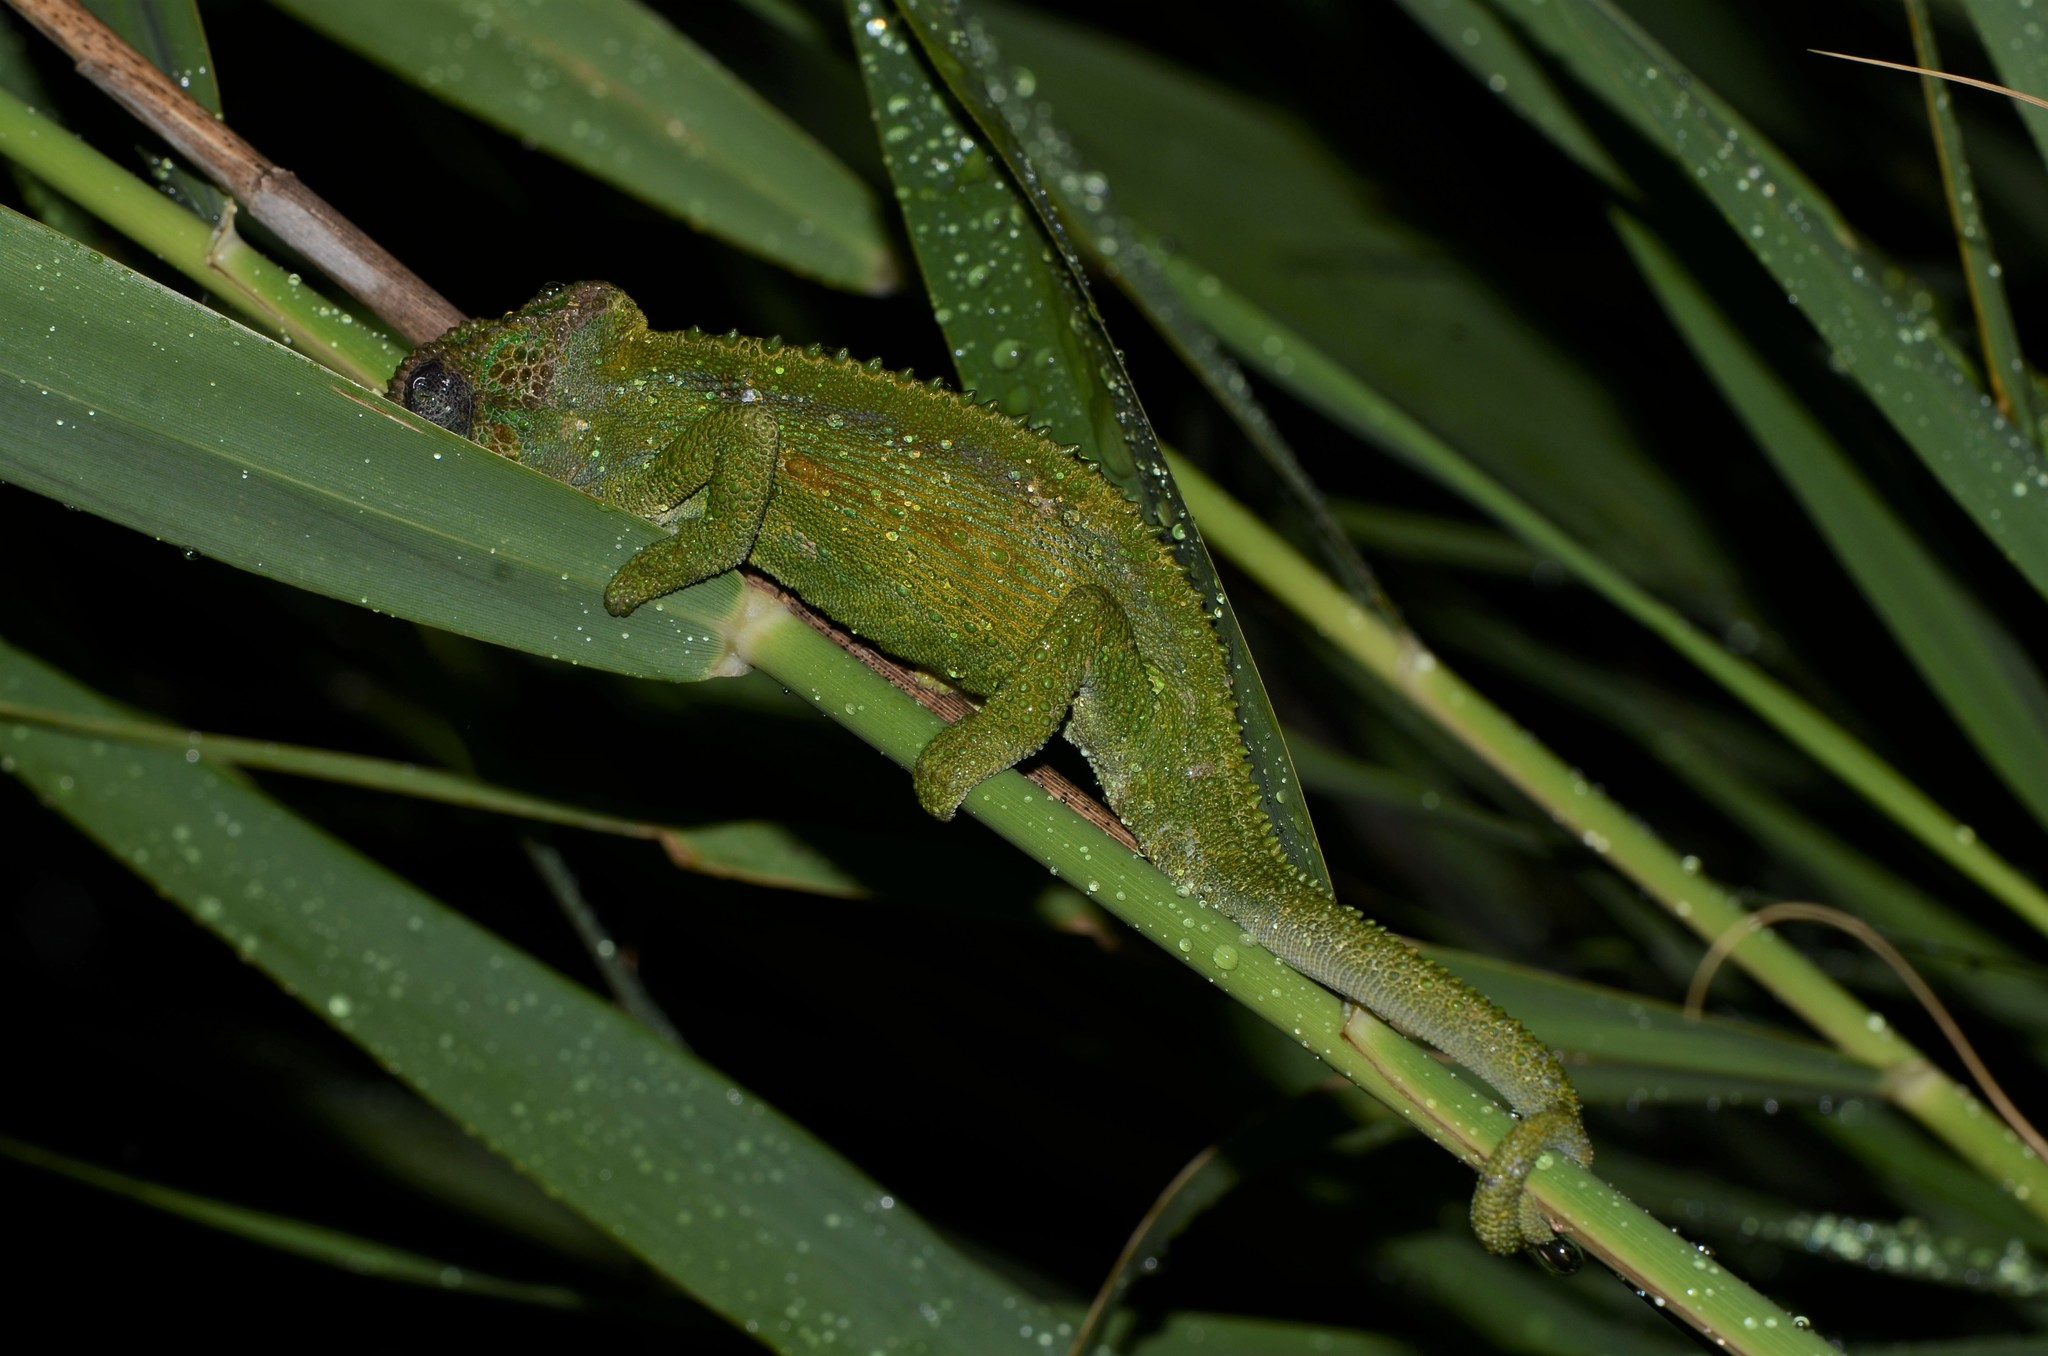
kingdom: Animalia
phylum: Chordata
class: Squamata
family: Chamaeleonidae
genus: Bradypodion
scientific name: Bradypodion pumilum
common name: Cape dwarf chameleon
